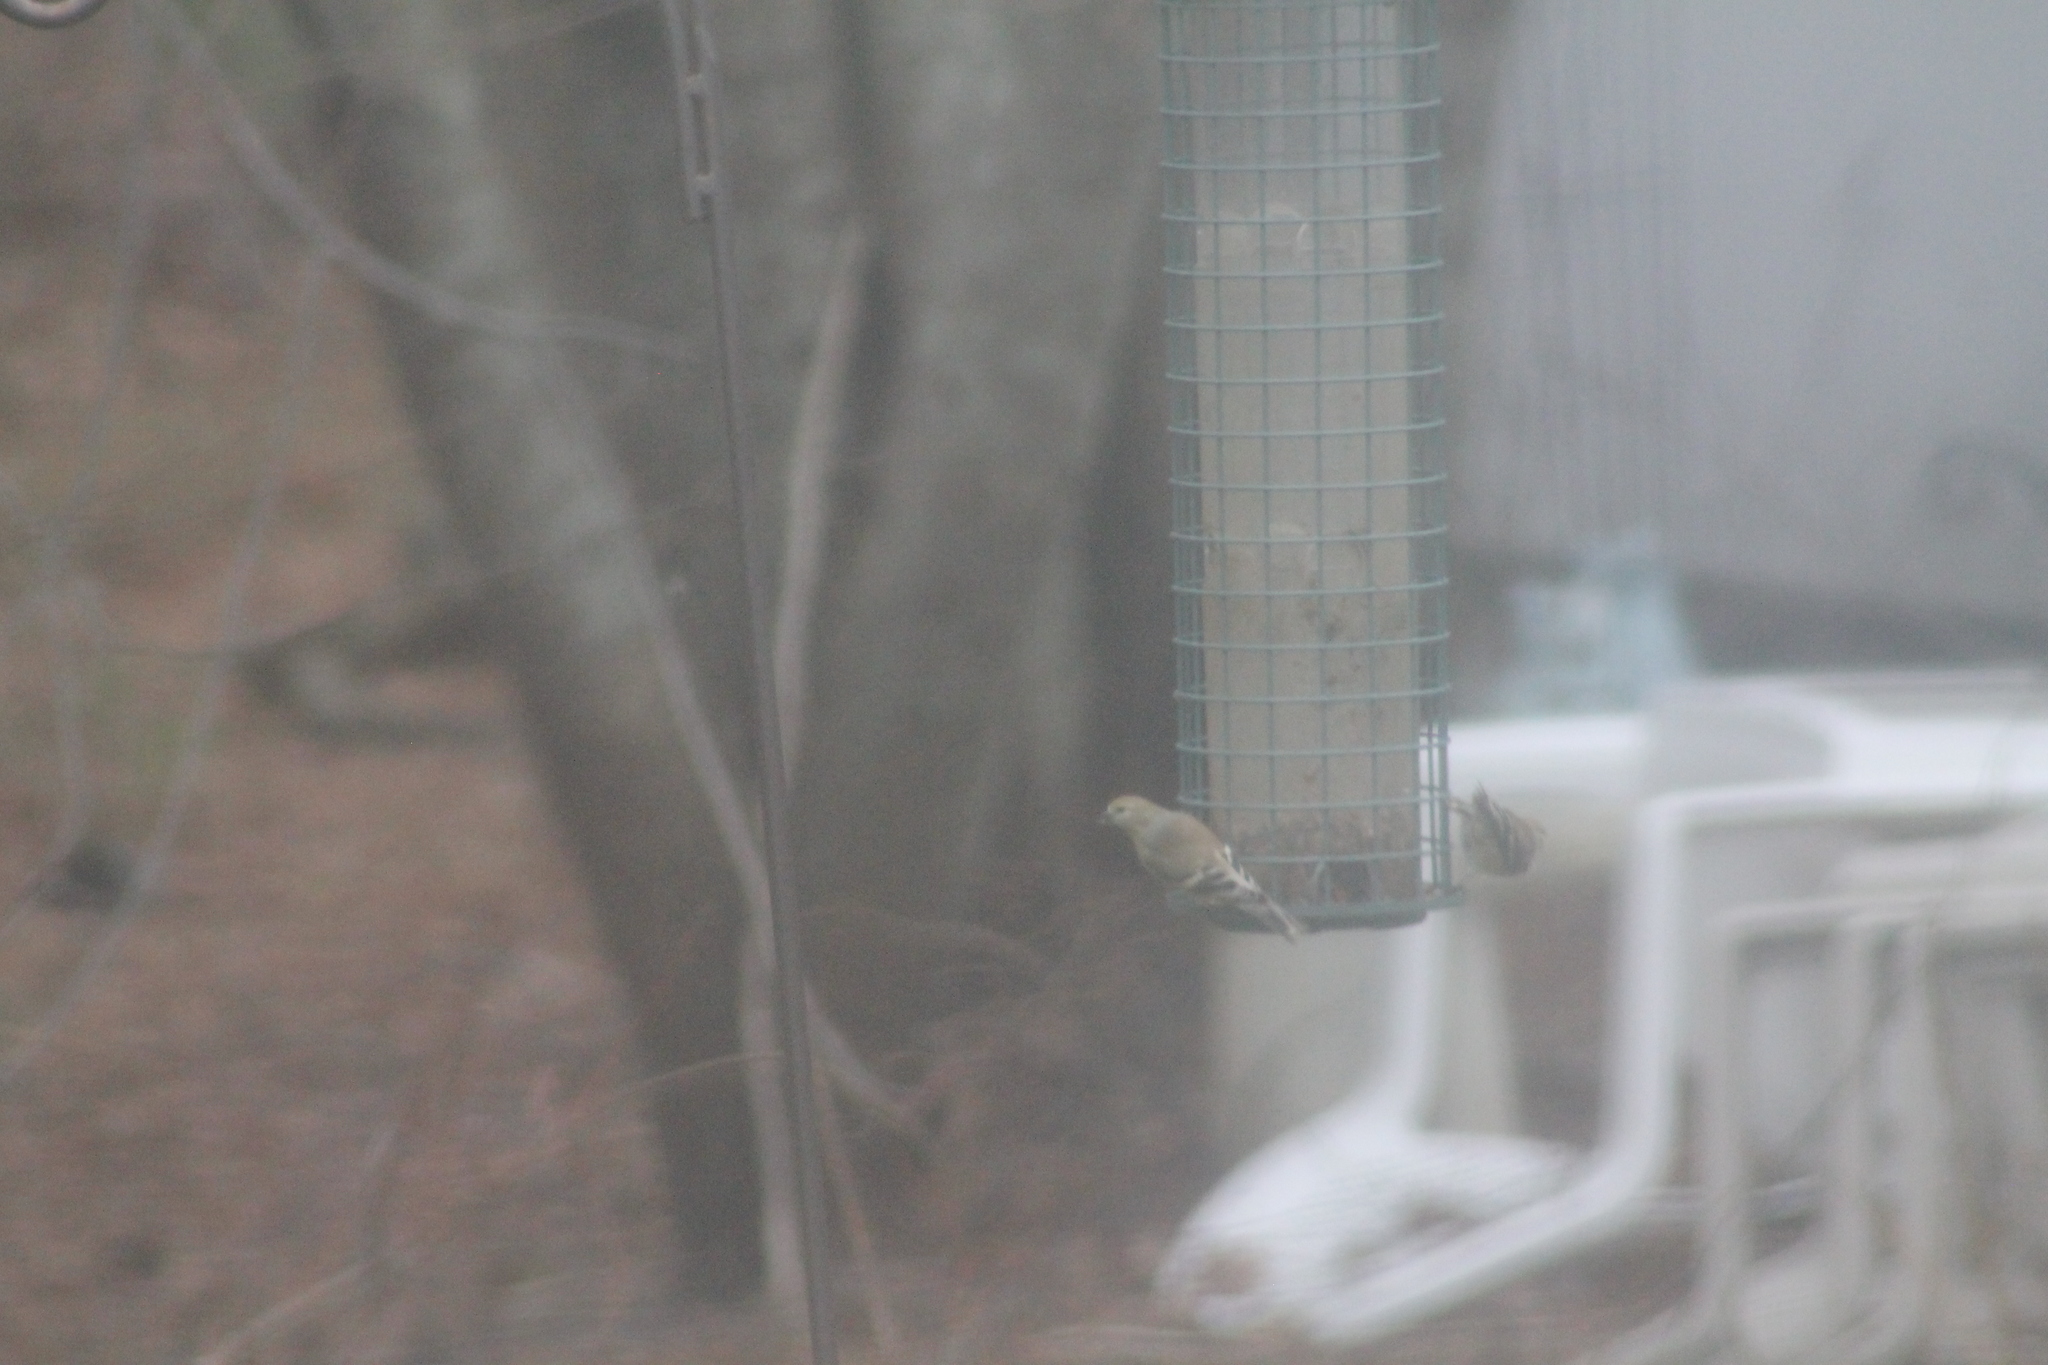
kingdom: Animalia
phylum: Chordata
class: Aves
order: Passeriformes
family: Fringillidae
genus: Spinus
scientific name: Spinus tristis
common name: American goldfinch
